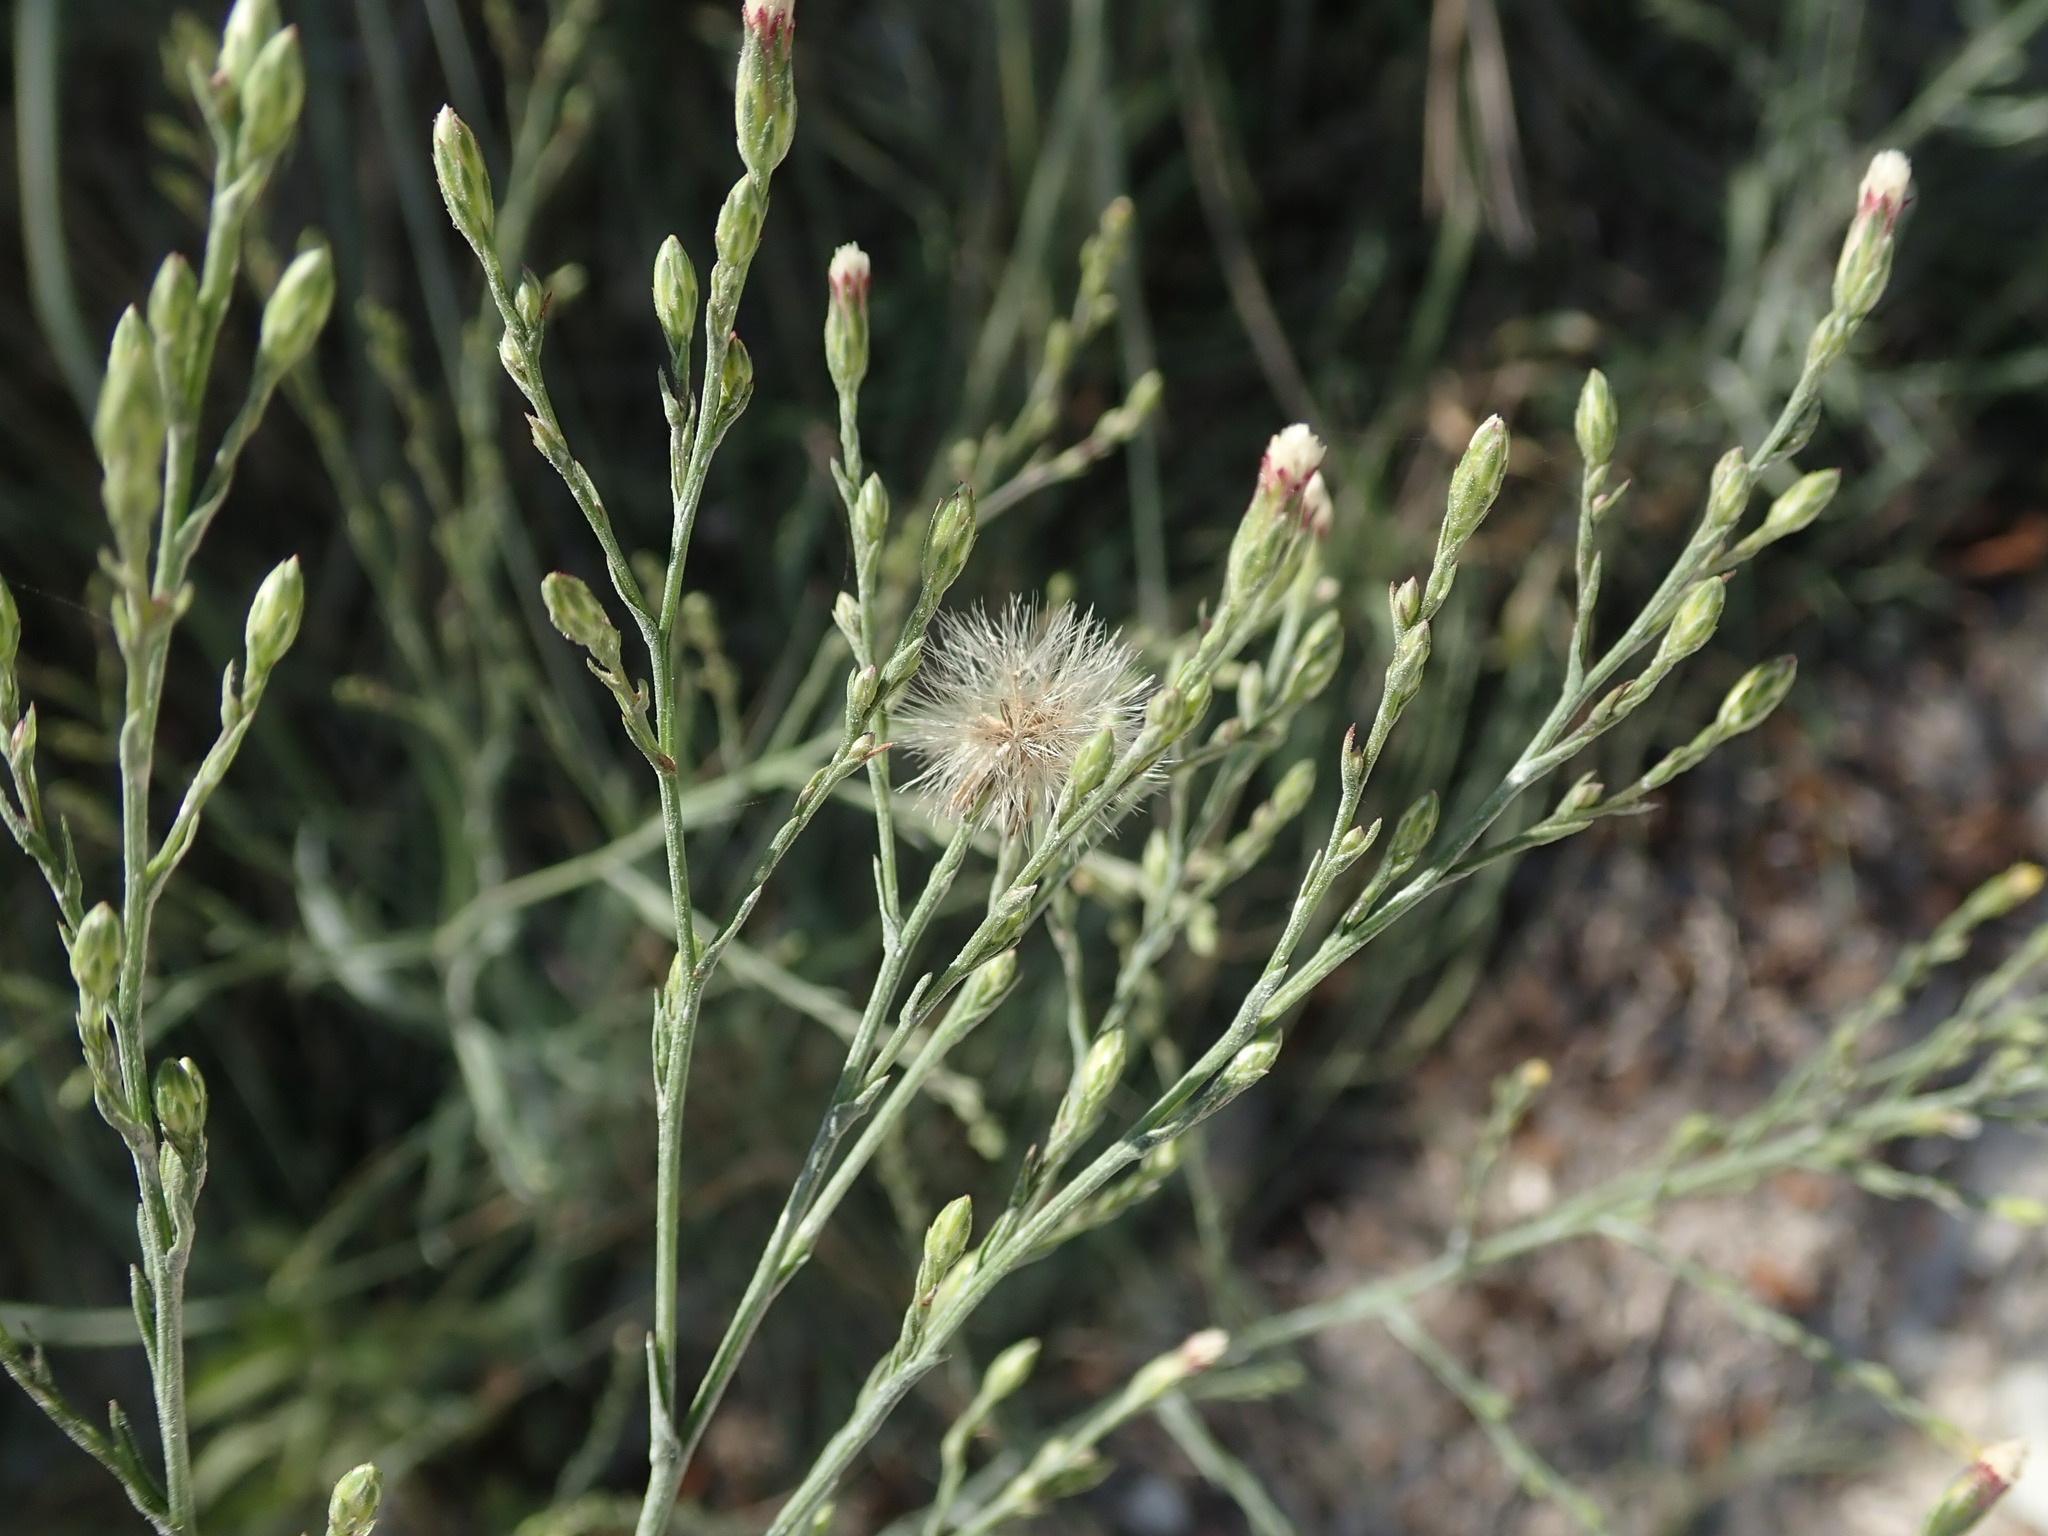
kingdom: Plantae
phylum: Tracheophyta
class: Magnoliopsida
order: Asterales
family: Asteraceae
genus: Symphyotrichum
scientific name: Symphyotrichum subulatum
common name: Annual saltmarsh aster
